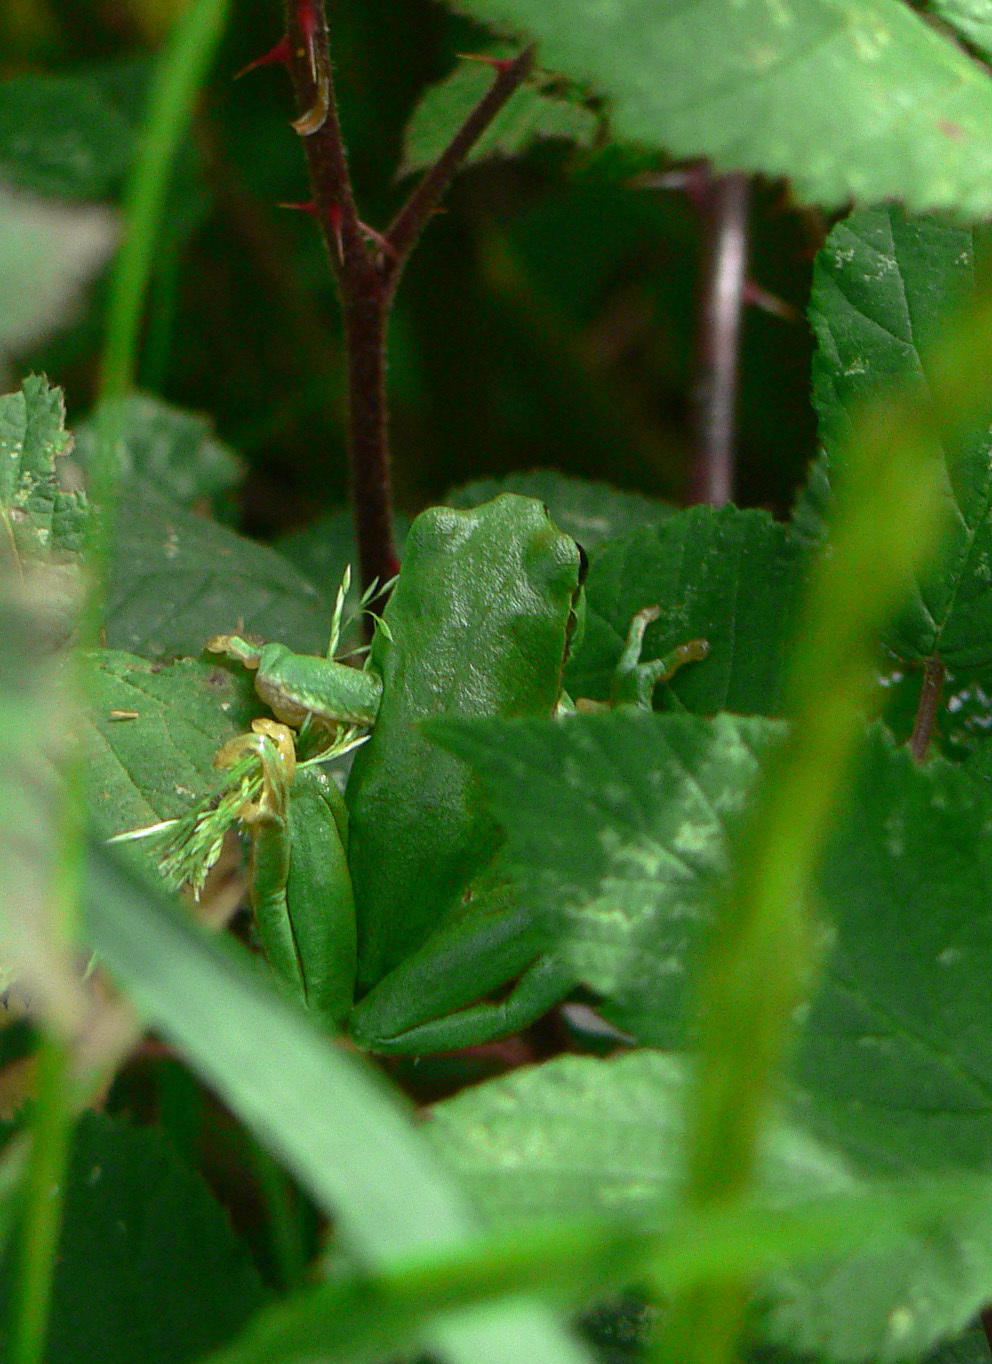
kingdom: Animalia
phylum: Chordata
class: Amphibia
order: Anura
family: Hylidae
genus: Hyla
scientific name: Hyla arborea
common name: Common tree frog
